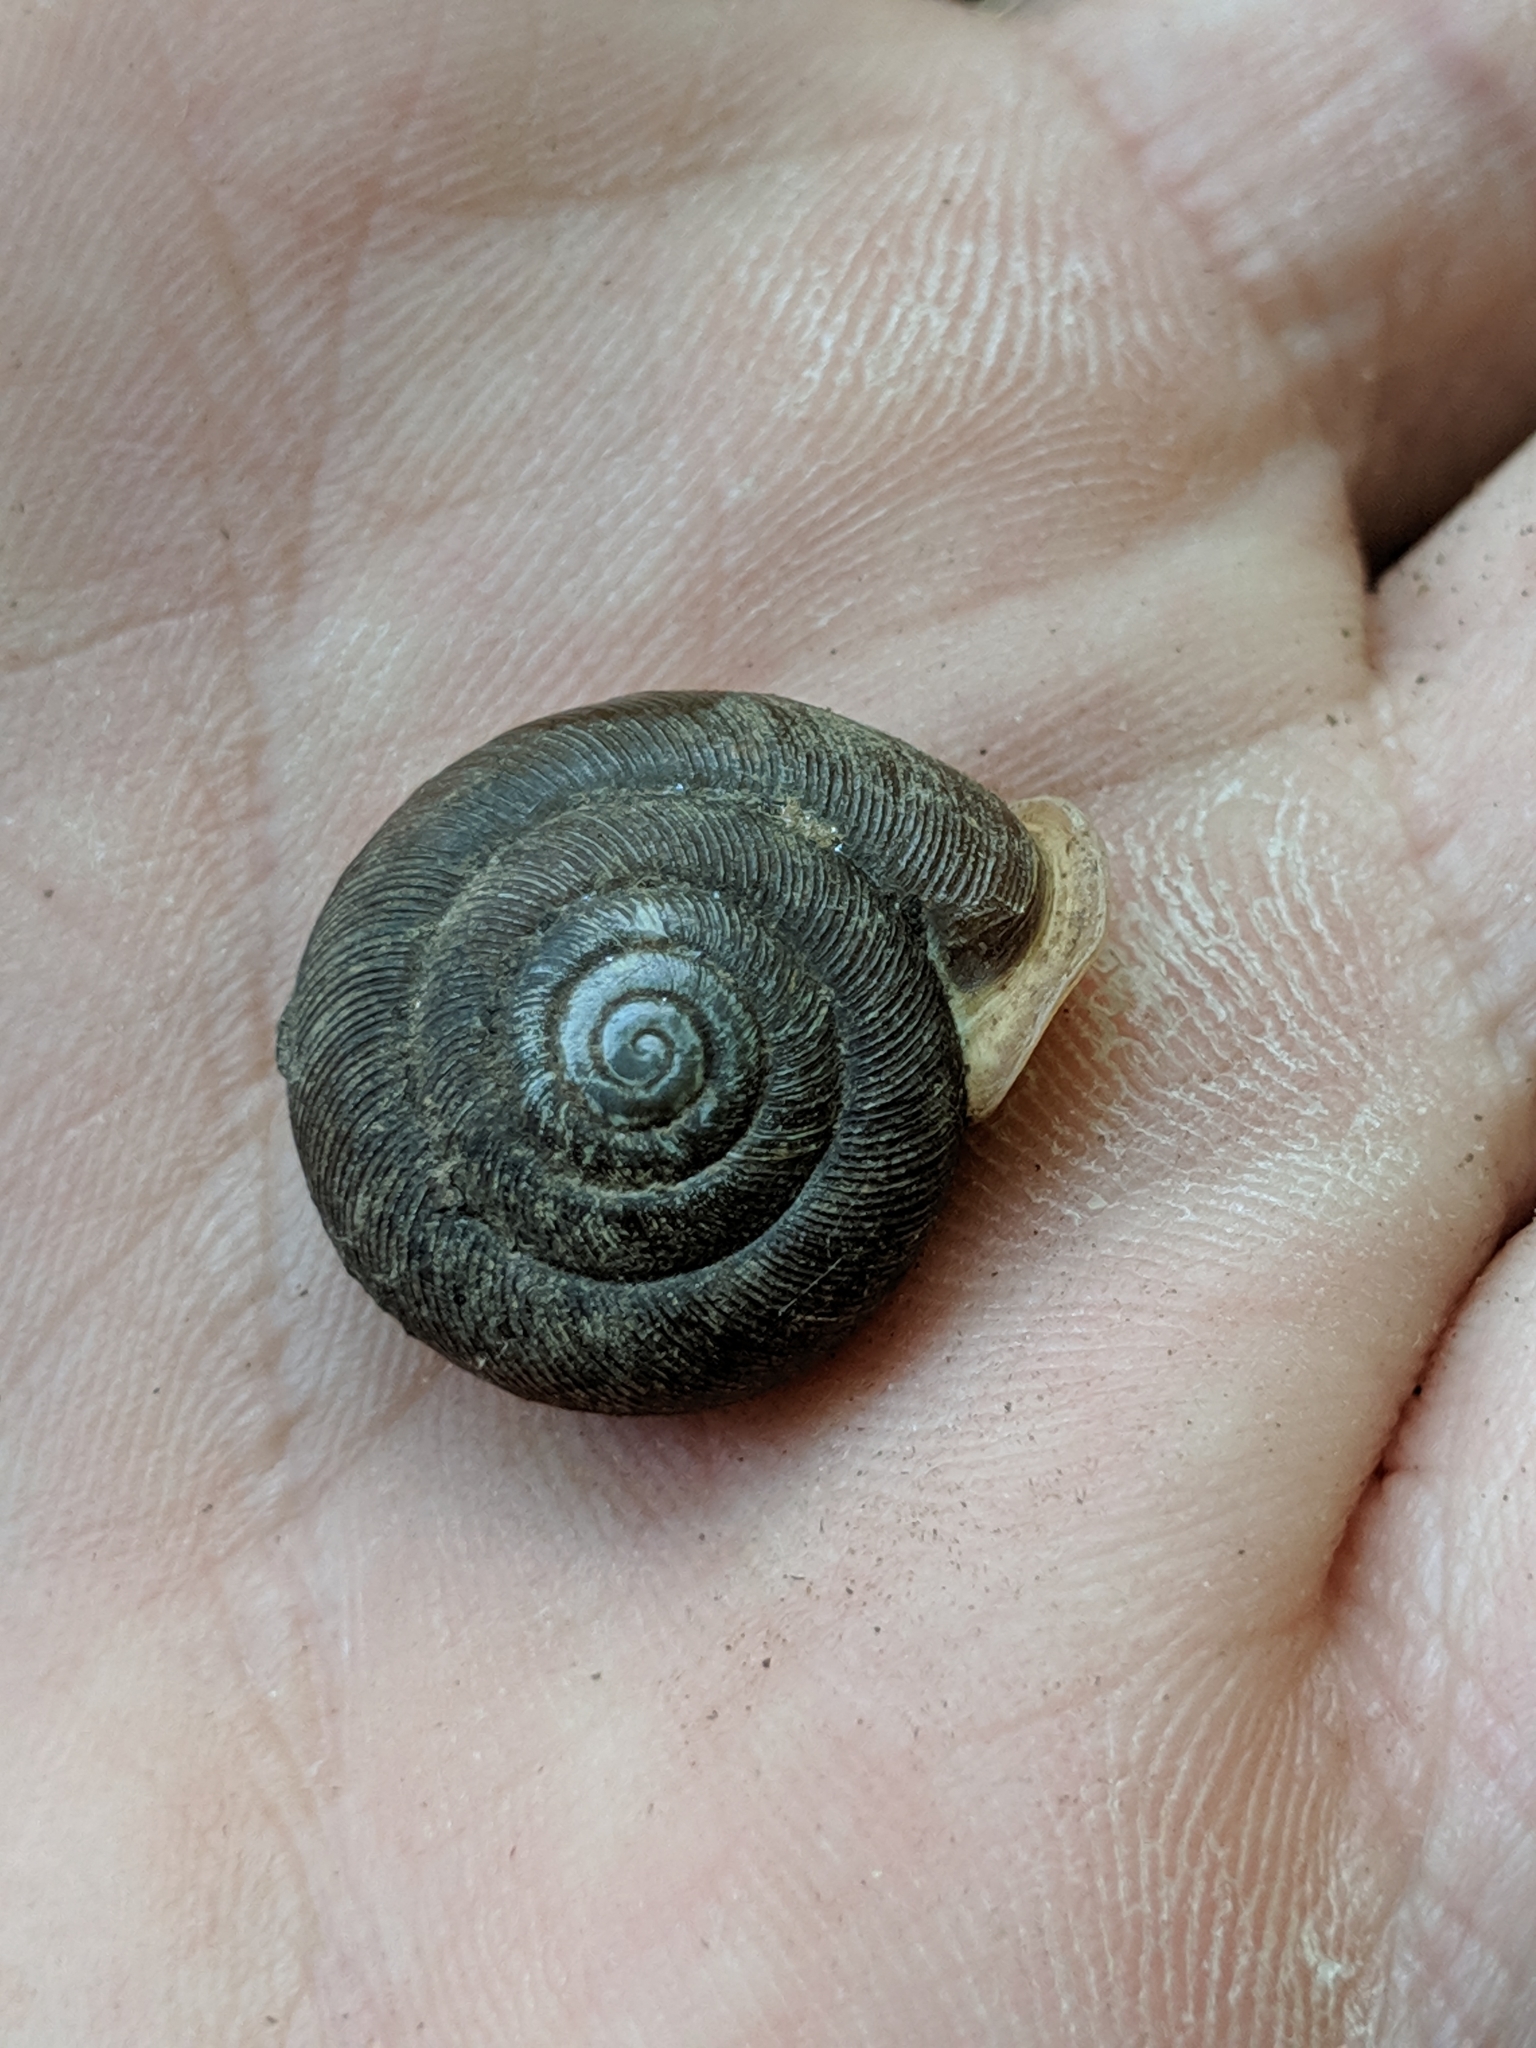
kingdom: Animalia
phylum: Mollusca
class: Gastropoda
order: Stylommatophora
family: Polygyridae
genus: Triodopsis
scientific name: Triodopsis complanata
